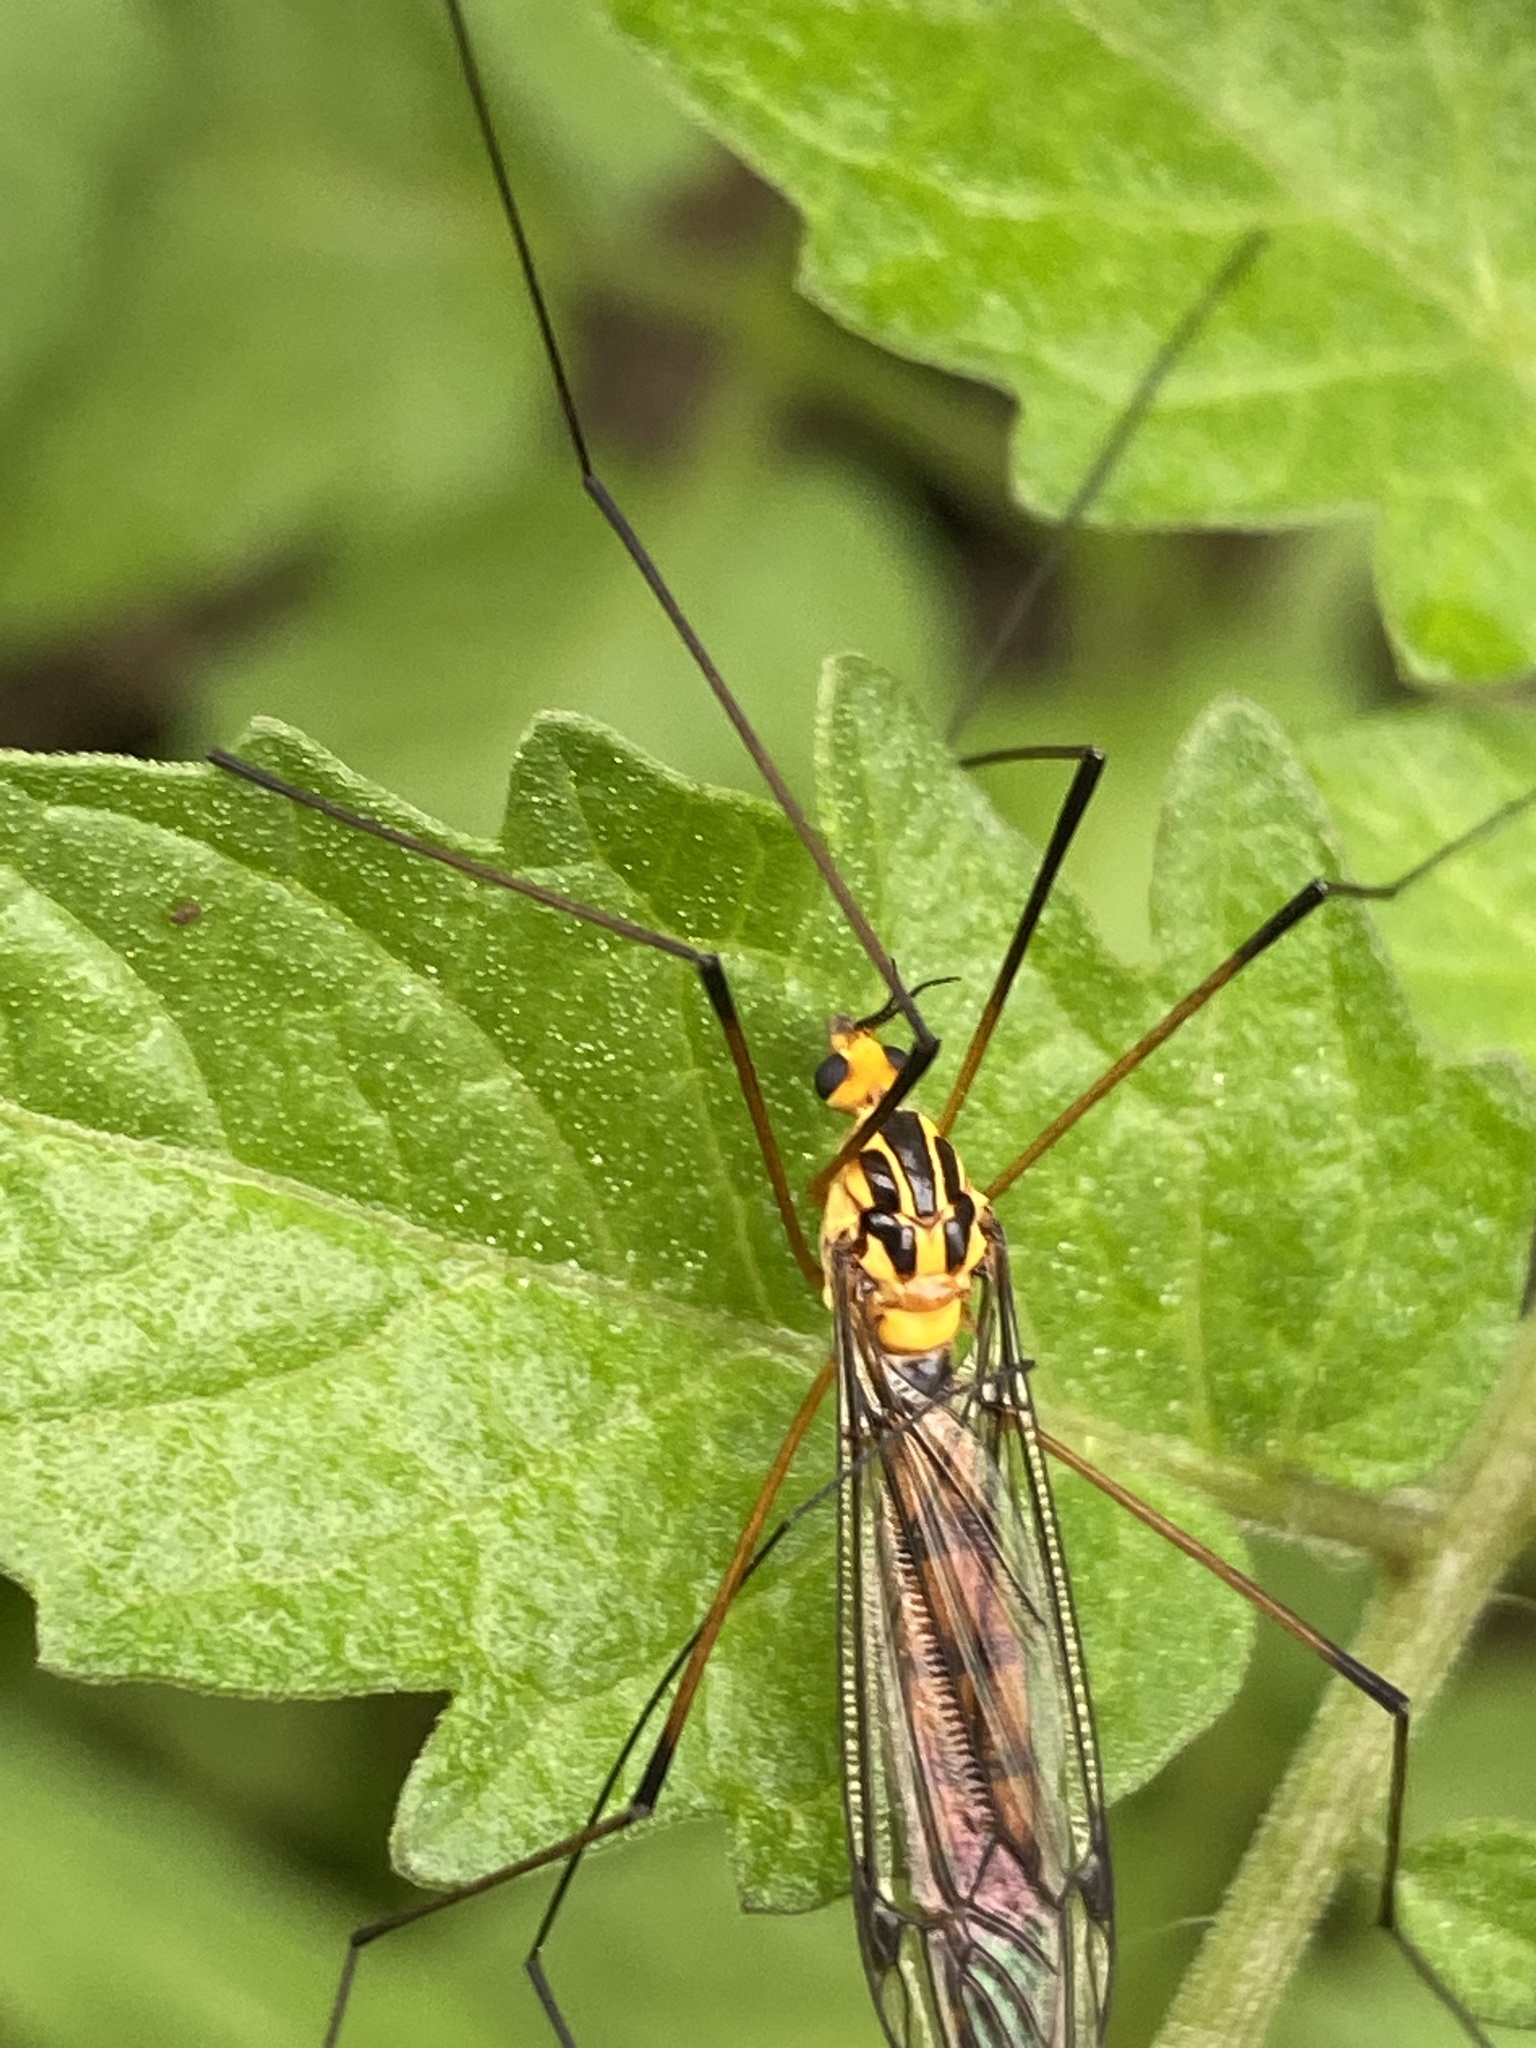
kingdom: Animalia
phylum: Arthropoda
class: Insecta
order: Diptera
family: Tipulidae
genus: Nephrotoma
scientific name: Nephrotoma australasiae
